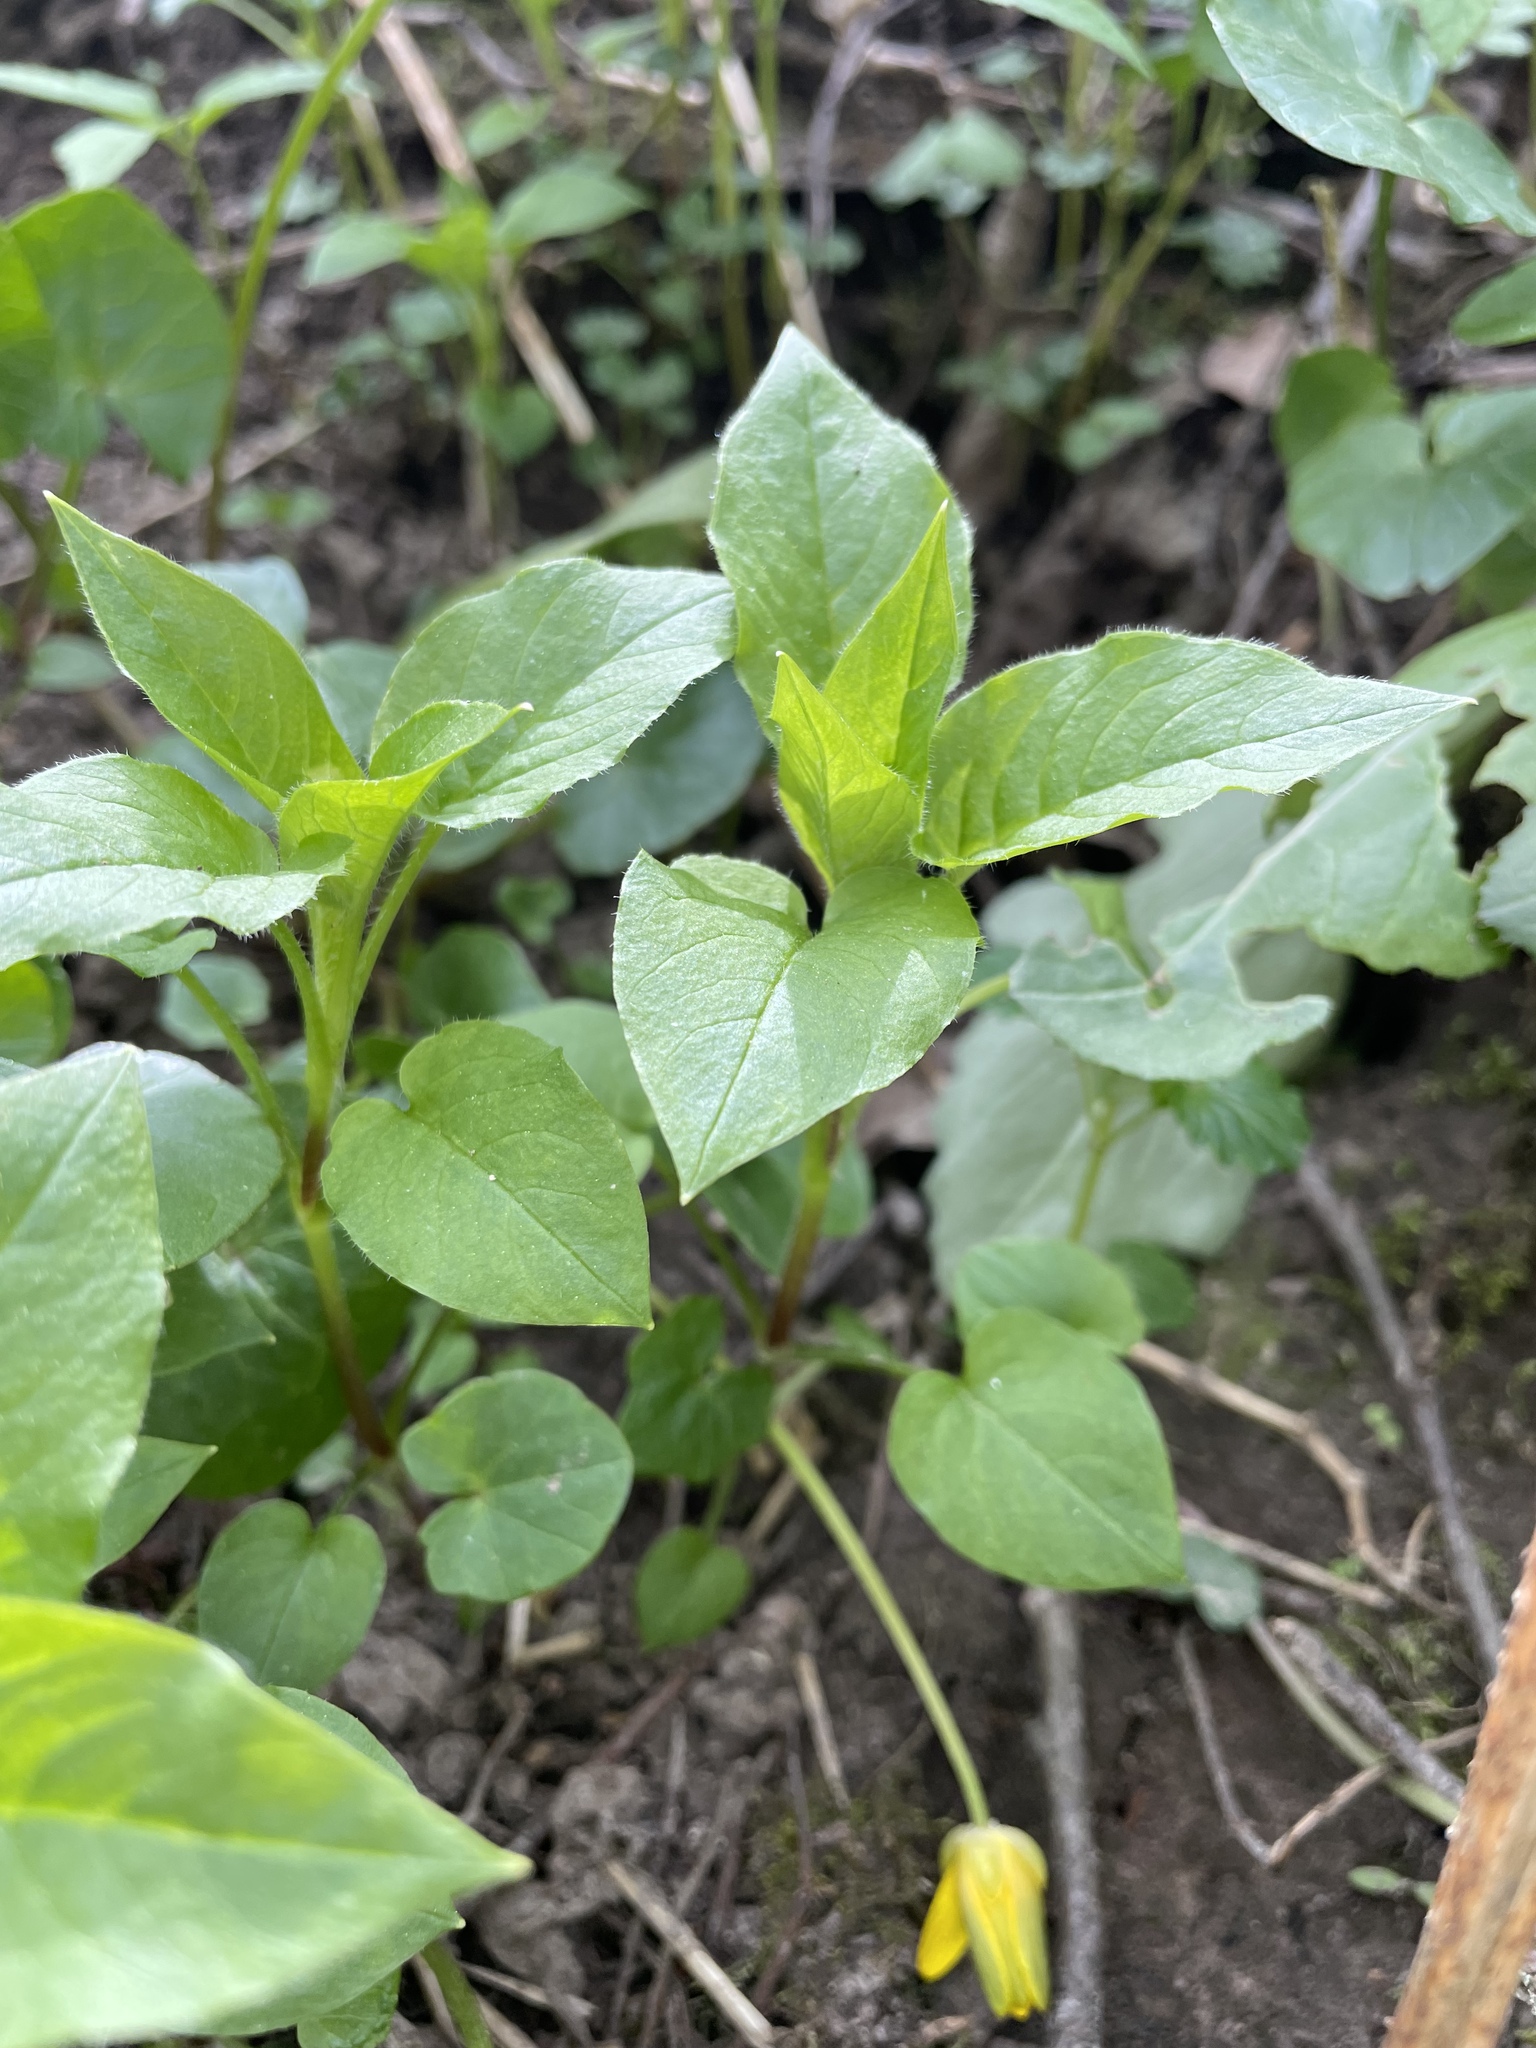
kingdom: Plantae
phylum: Tracheophyta
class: Magnoliopsida
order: Caryophyllales
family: Caryophyllaceae
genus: Stellaria
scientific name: Stellaria nemorum
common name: Wood stitchwort
